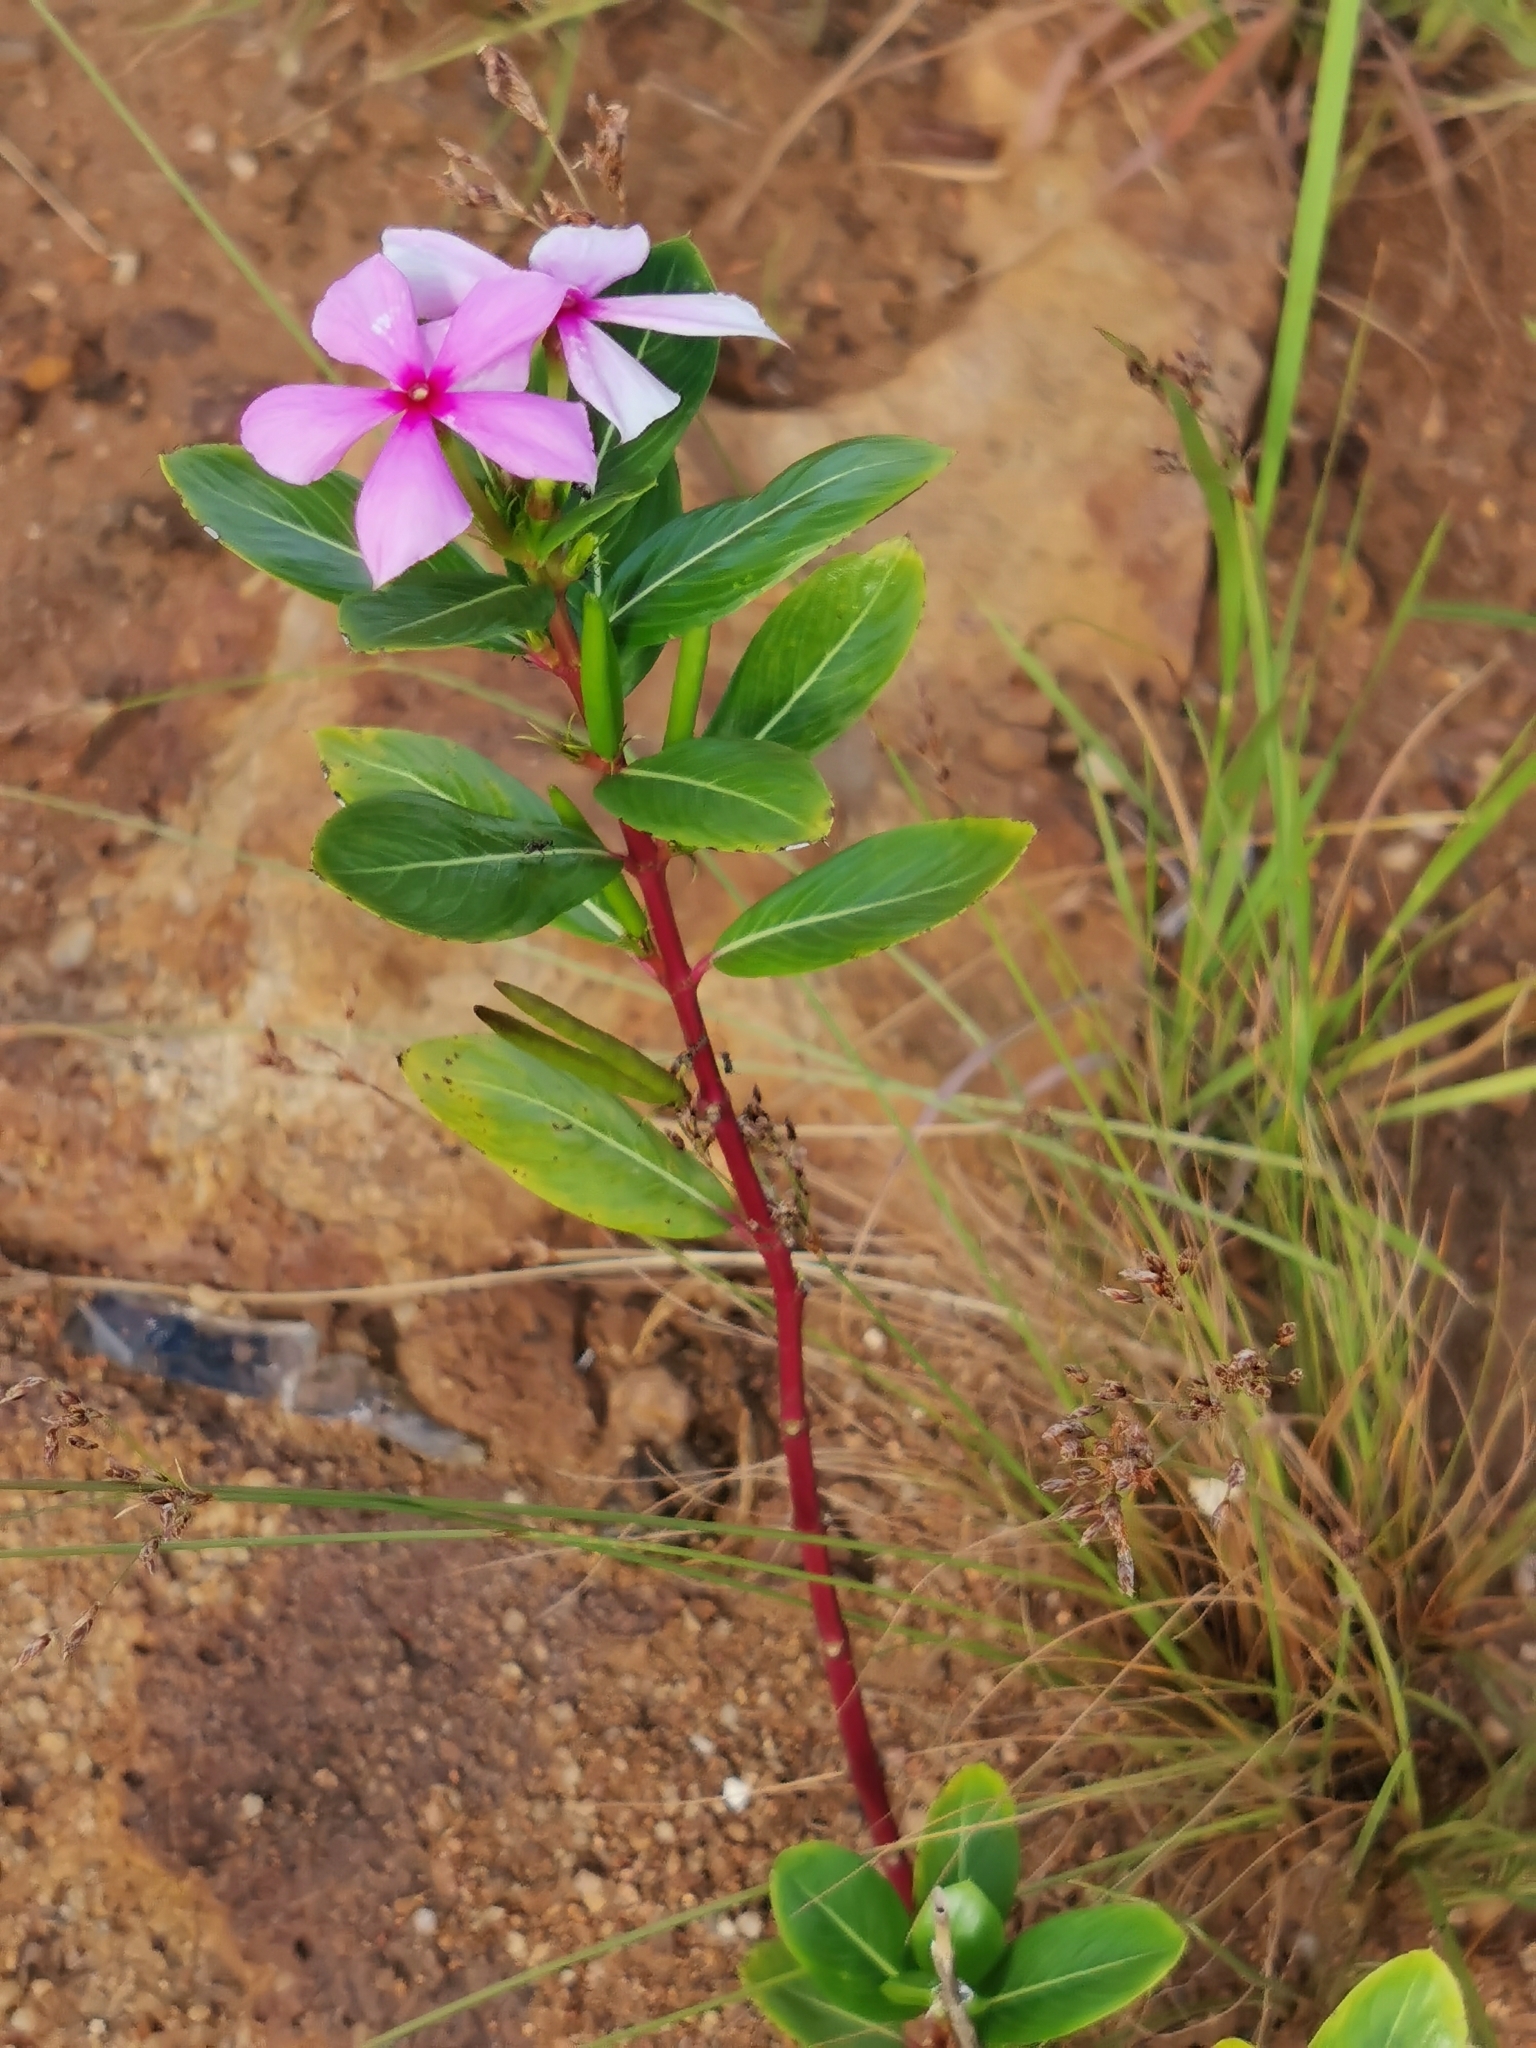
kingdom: Plantae
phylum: Tracheophyta
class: Magnoliopsida
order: Gentianales
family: Apocynaceae
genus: Catharanthus
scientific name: Catharanthus roseus
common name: Madagascar periwinkle
